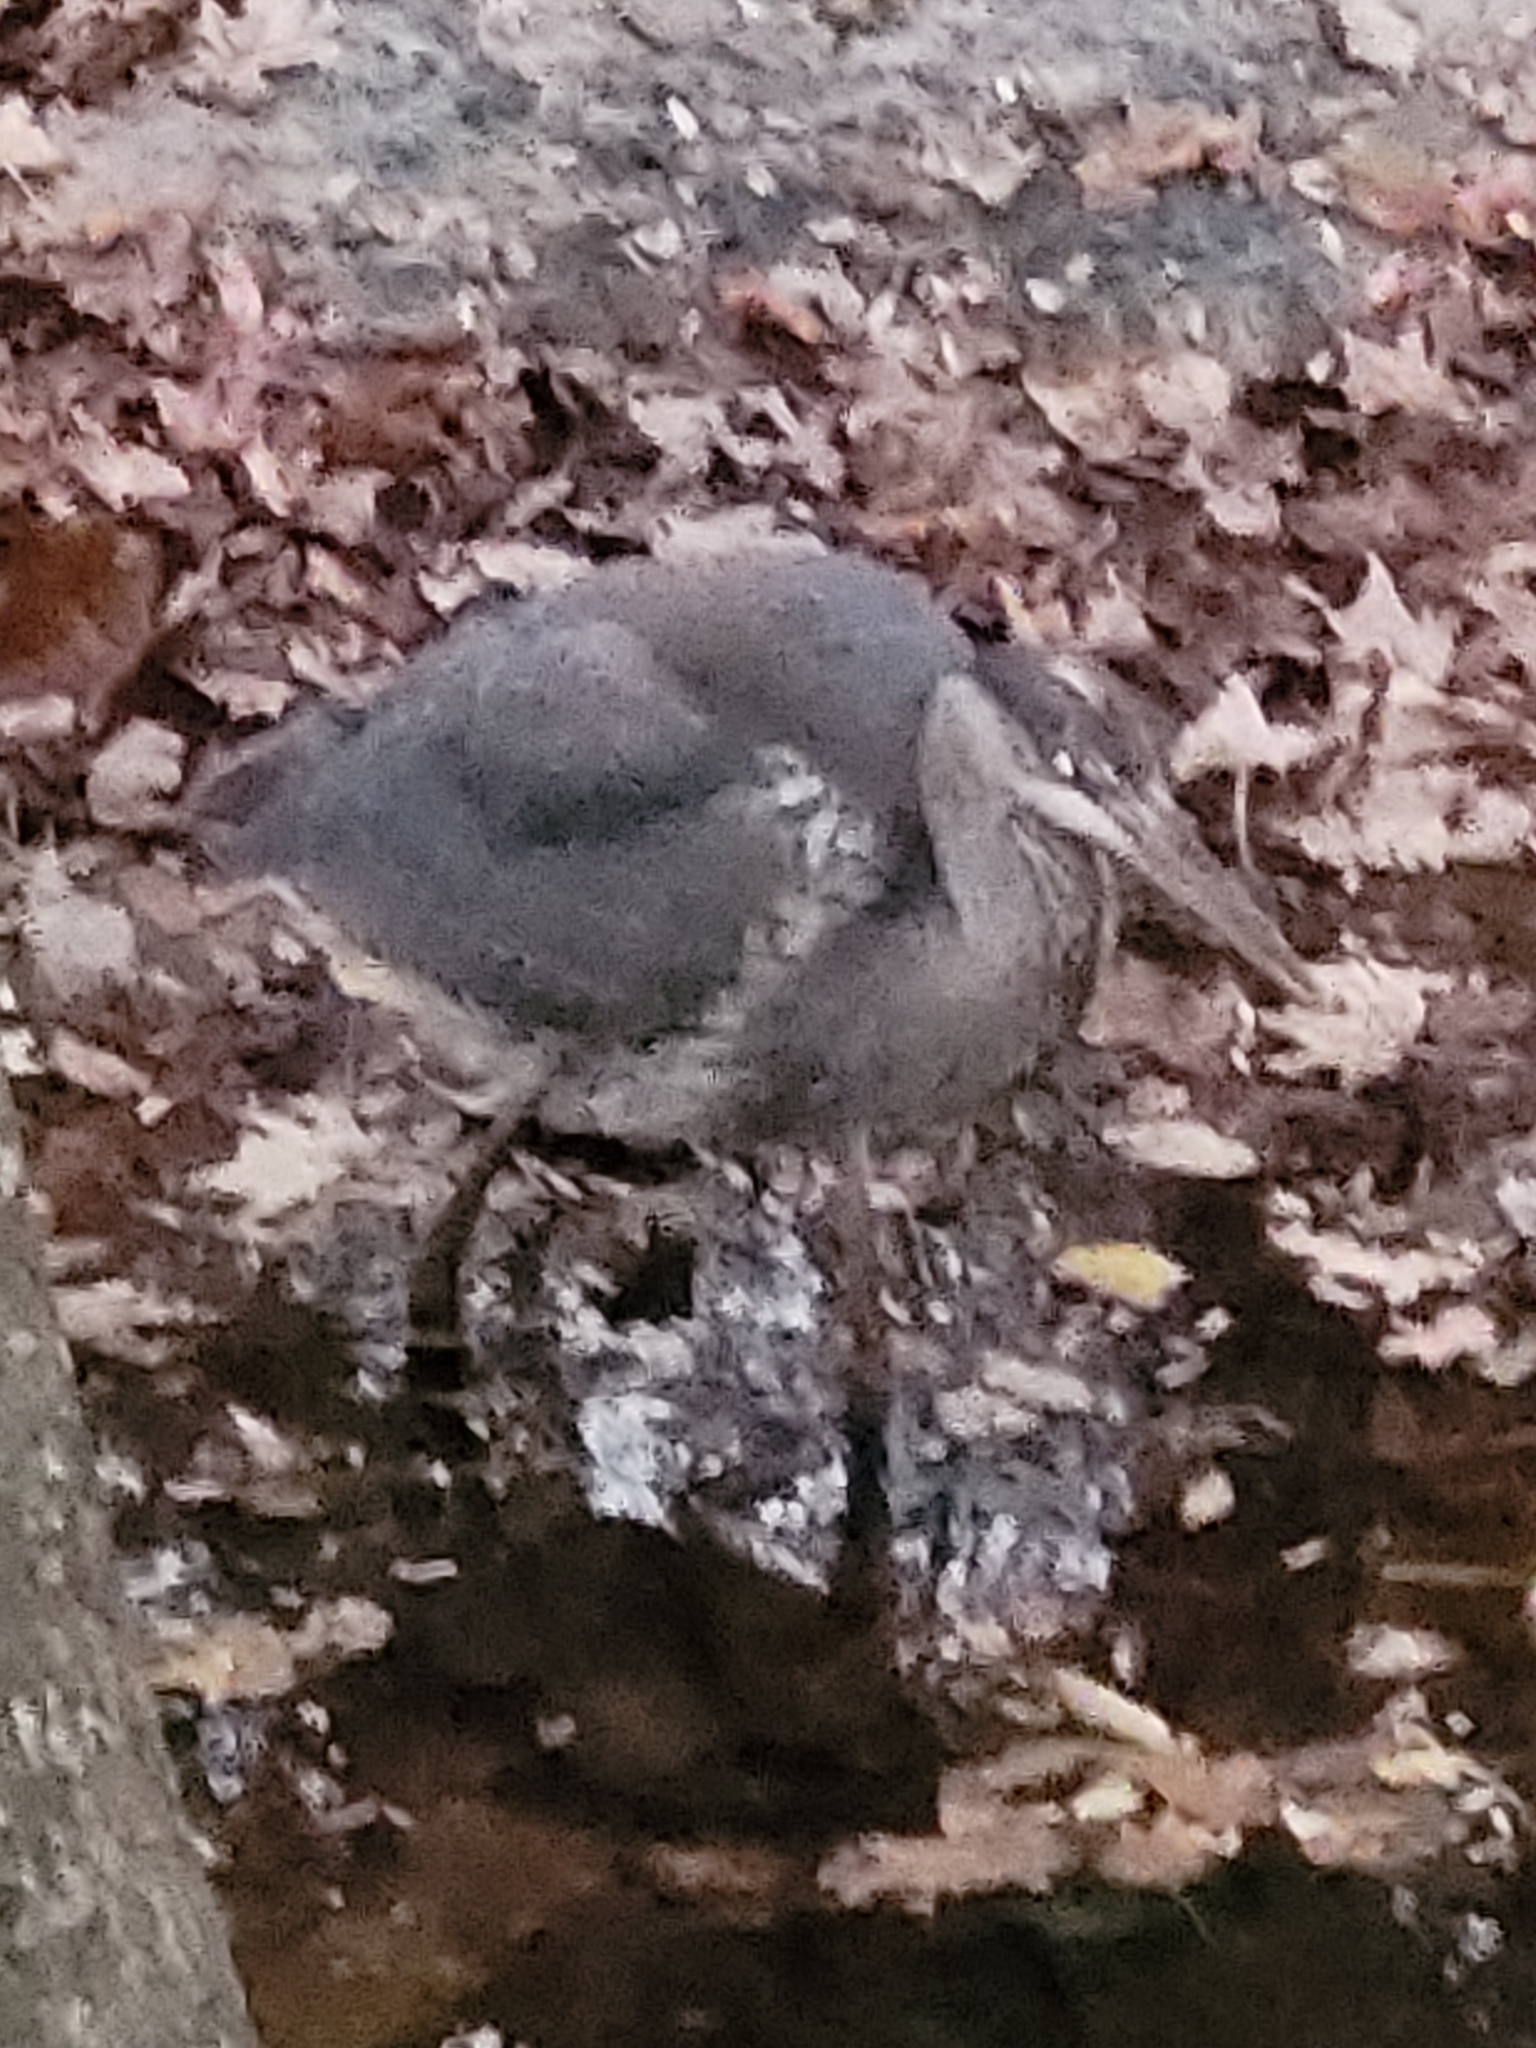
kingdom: Animalia
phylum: Chordata
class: Aves
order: Pelecaniformes
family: Ardeidae
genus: Ardea
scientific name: Ardea herodias
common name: Great blue heron
